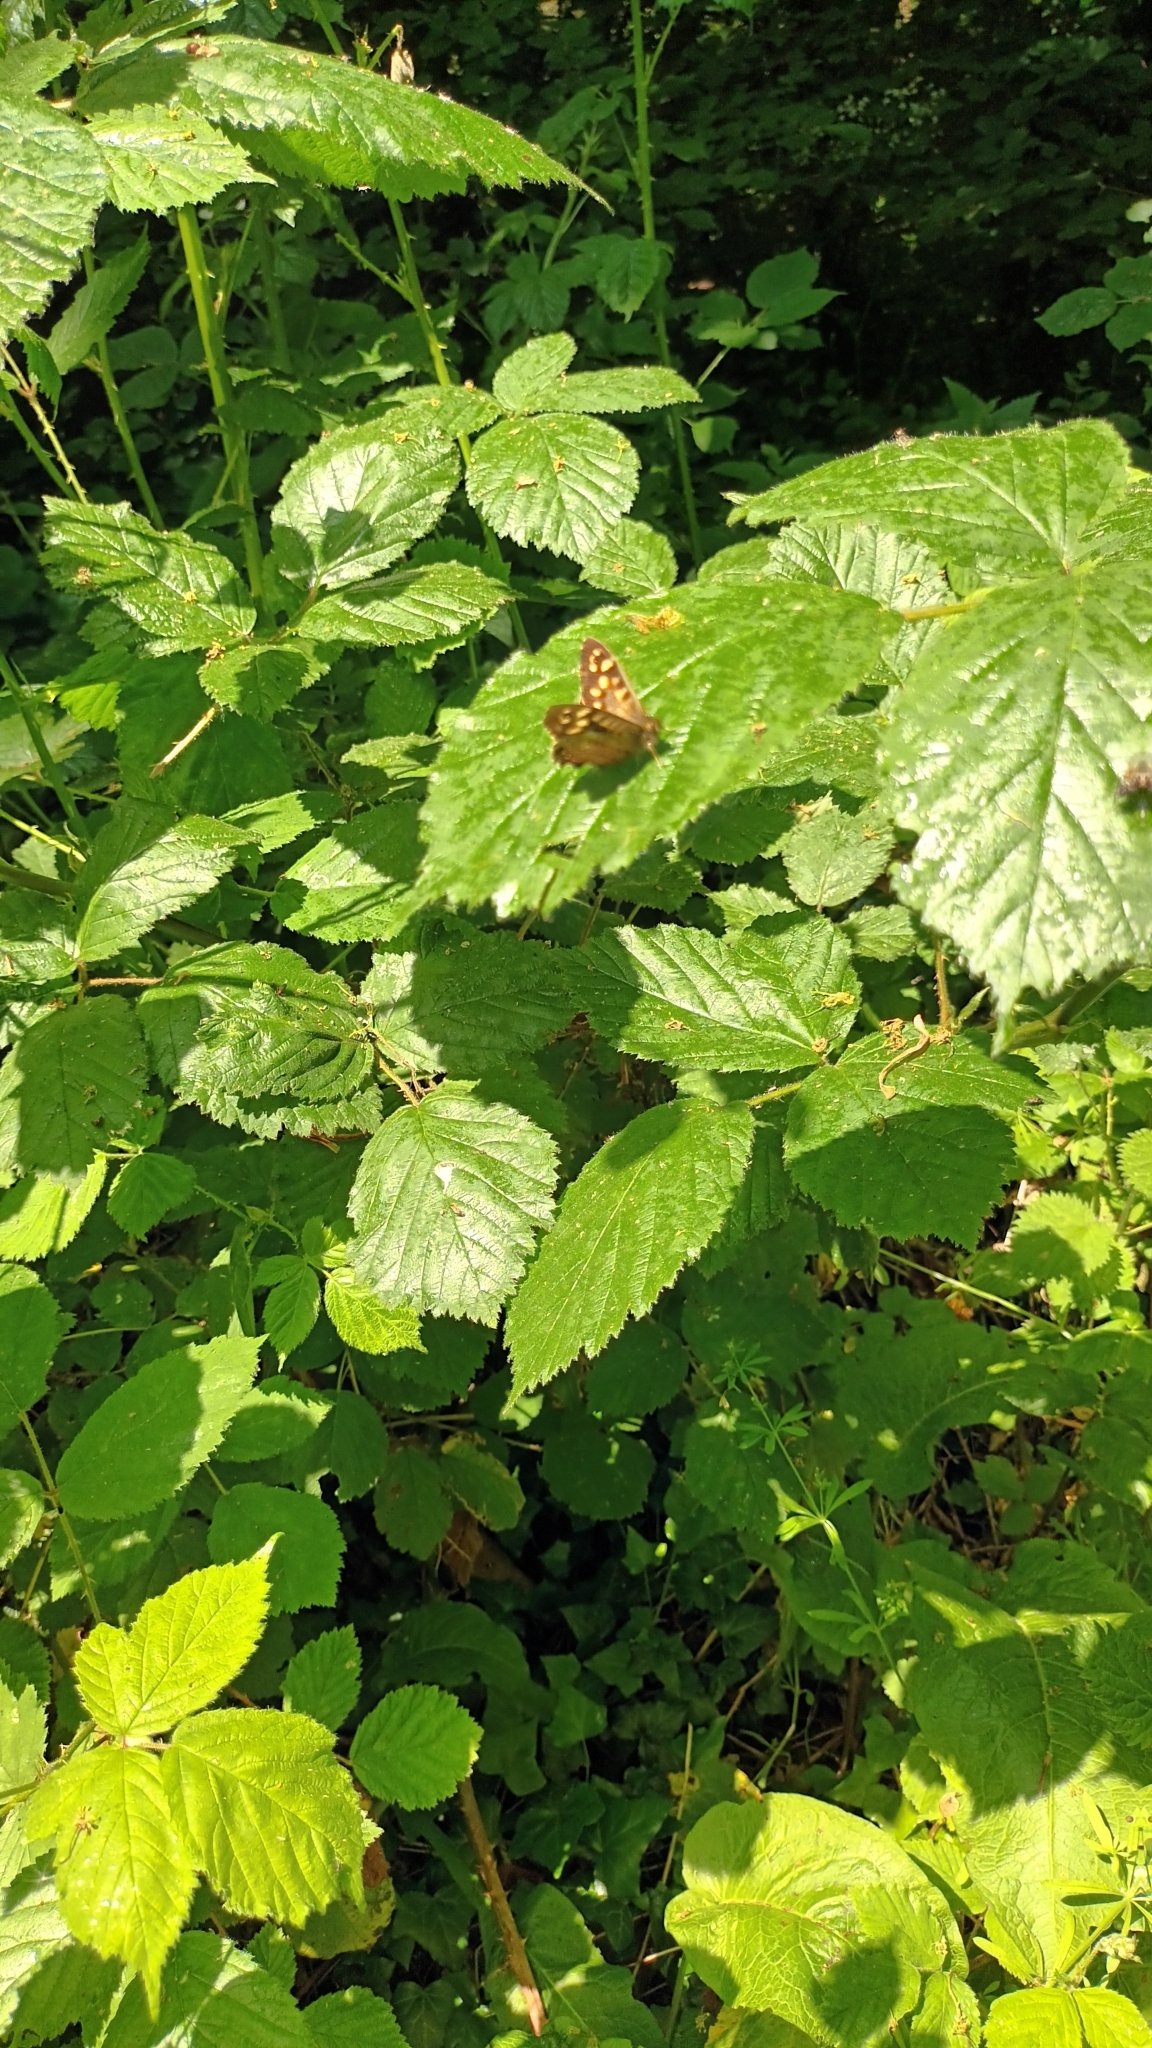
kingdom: Animalia
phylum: Arthropoda
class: Insecta
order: Lepidoptera
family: Nymphalidae
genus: Pararge
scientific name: Pararge aegeria
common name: Speckled wood
